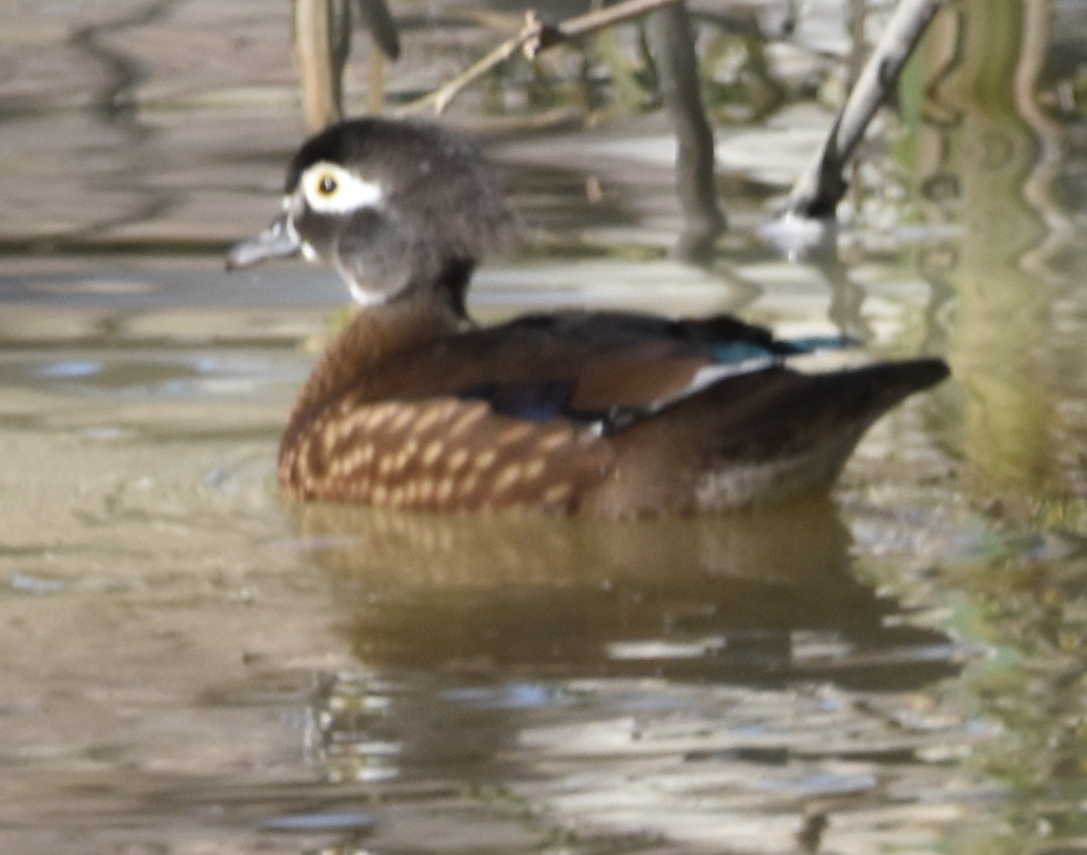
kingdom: Animalia
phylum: Chordata
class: Aves
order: Anseriformes
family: Anatidae
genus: Aix
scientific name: Aix sponsa
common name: Wood duck
